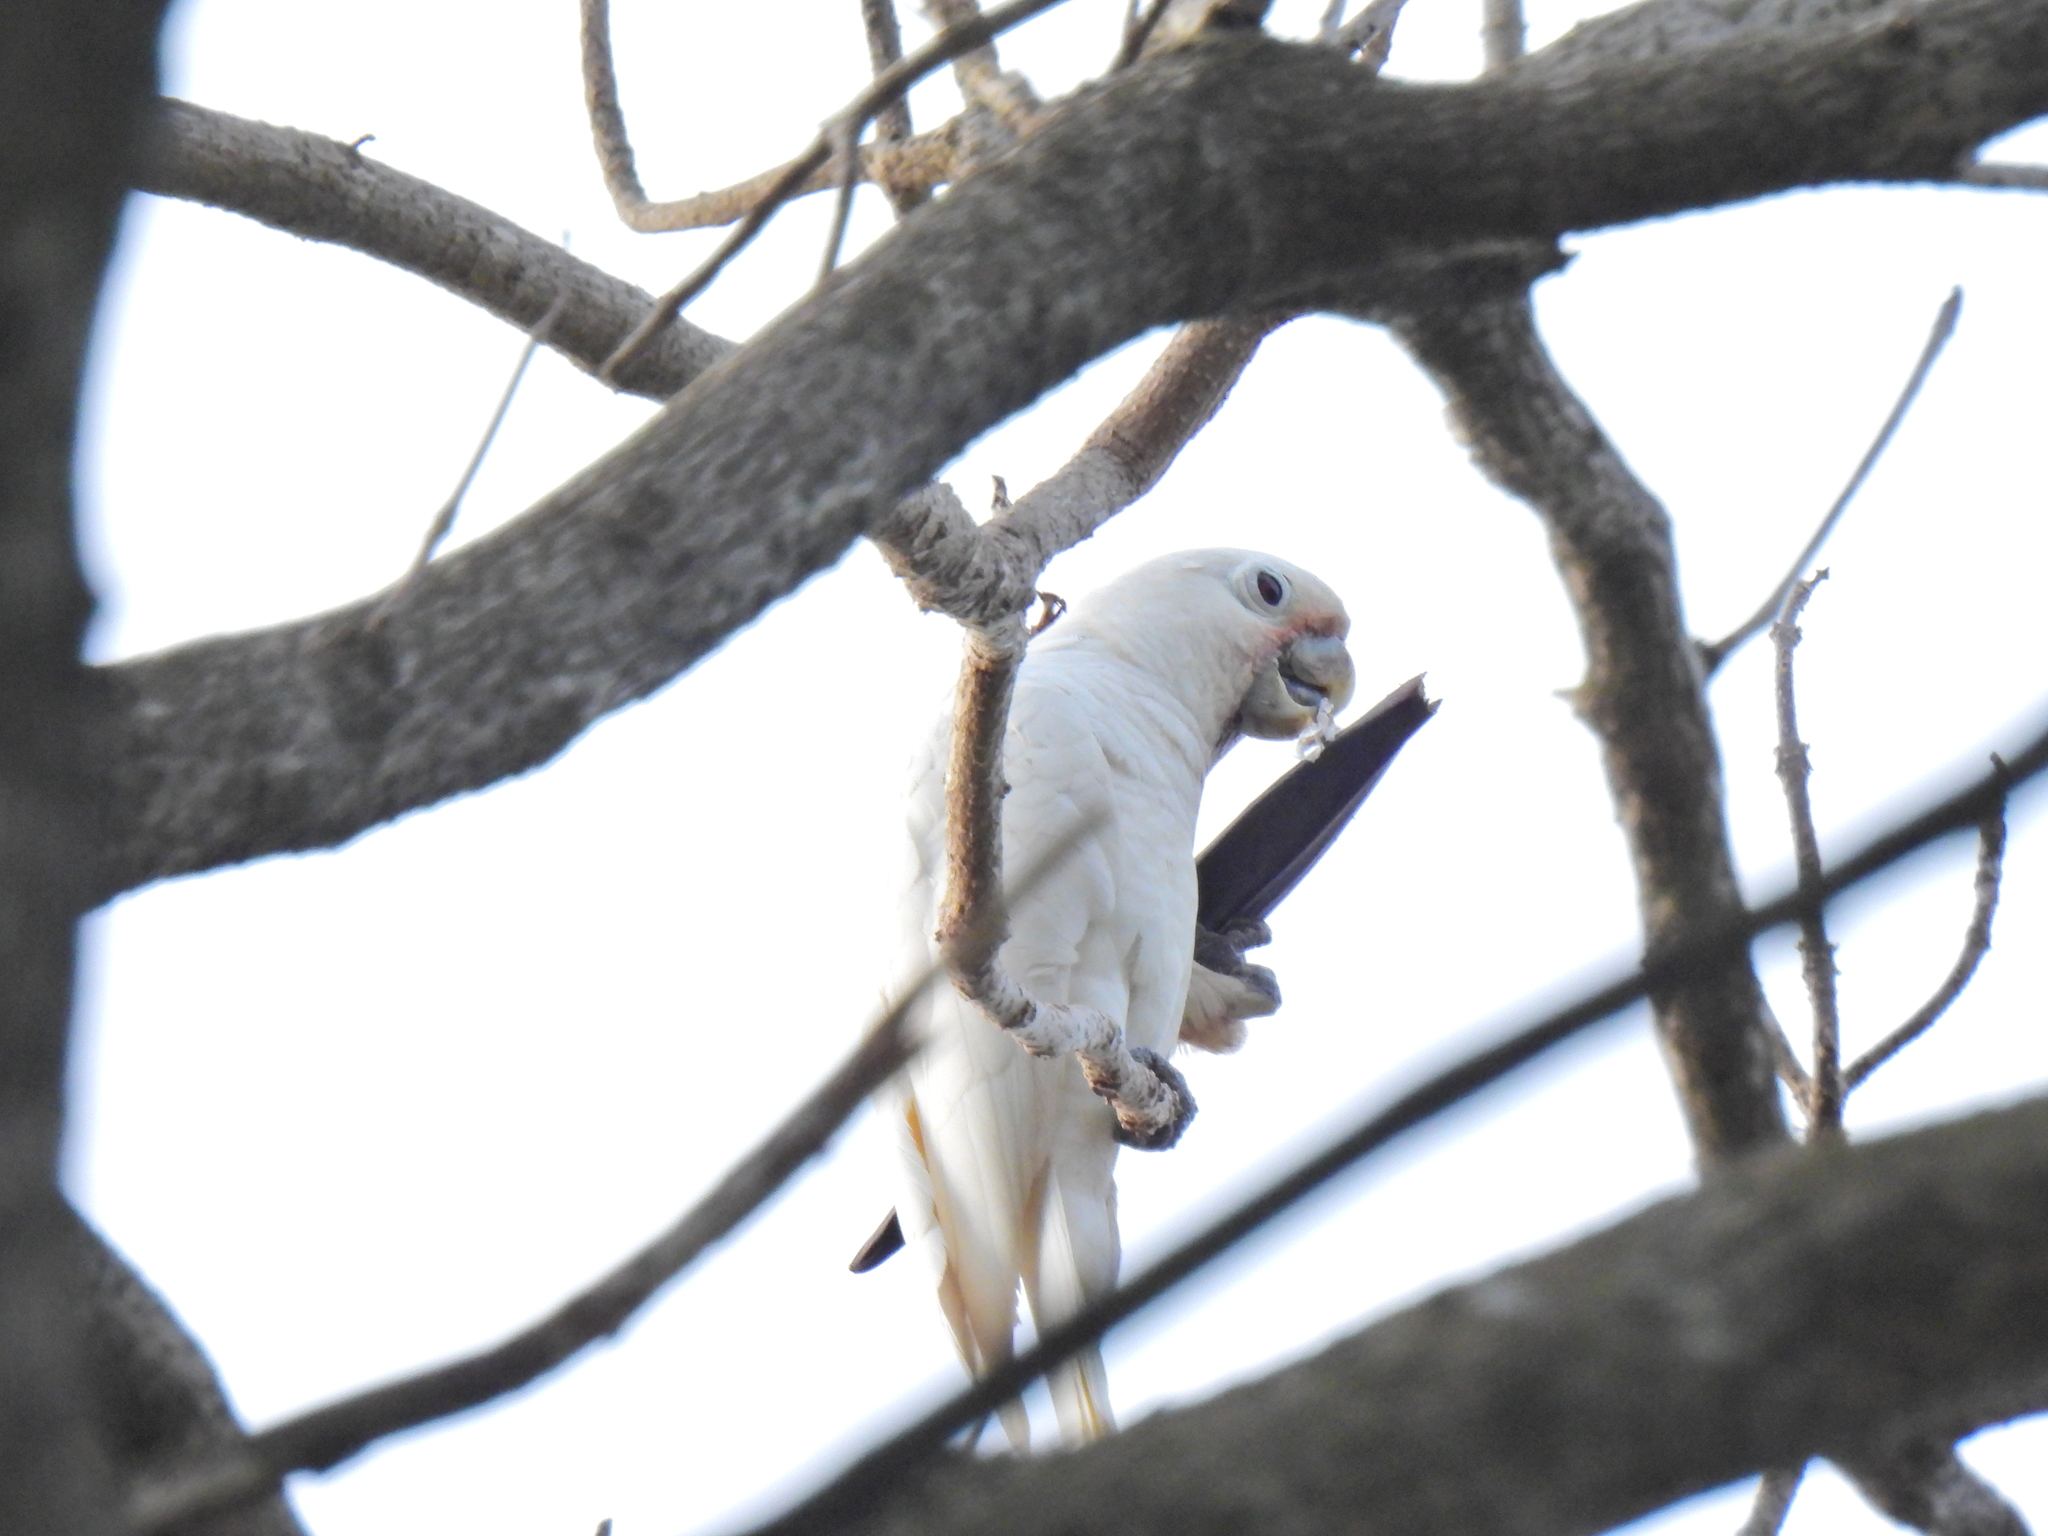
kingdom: Animalia
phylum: Chordata
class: Aves
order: Psittaciformes
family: Psittacidae
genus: Cacatua
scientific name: Cacatua goffiniana
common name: Tanimbar corella
